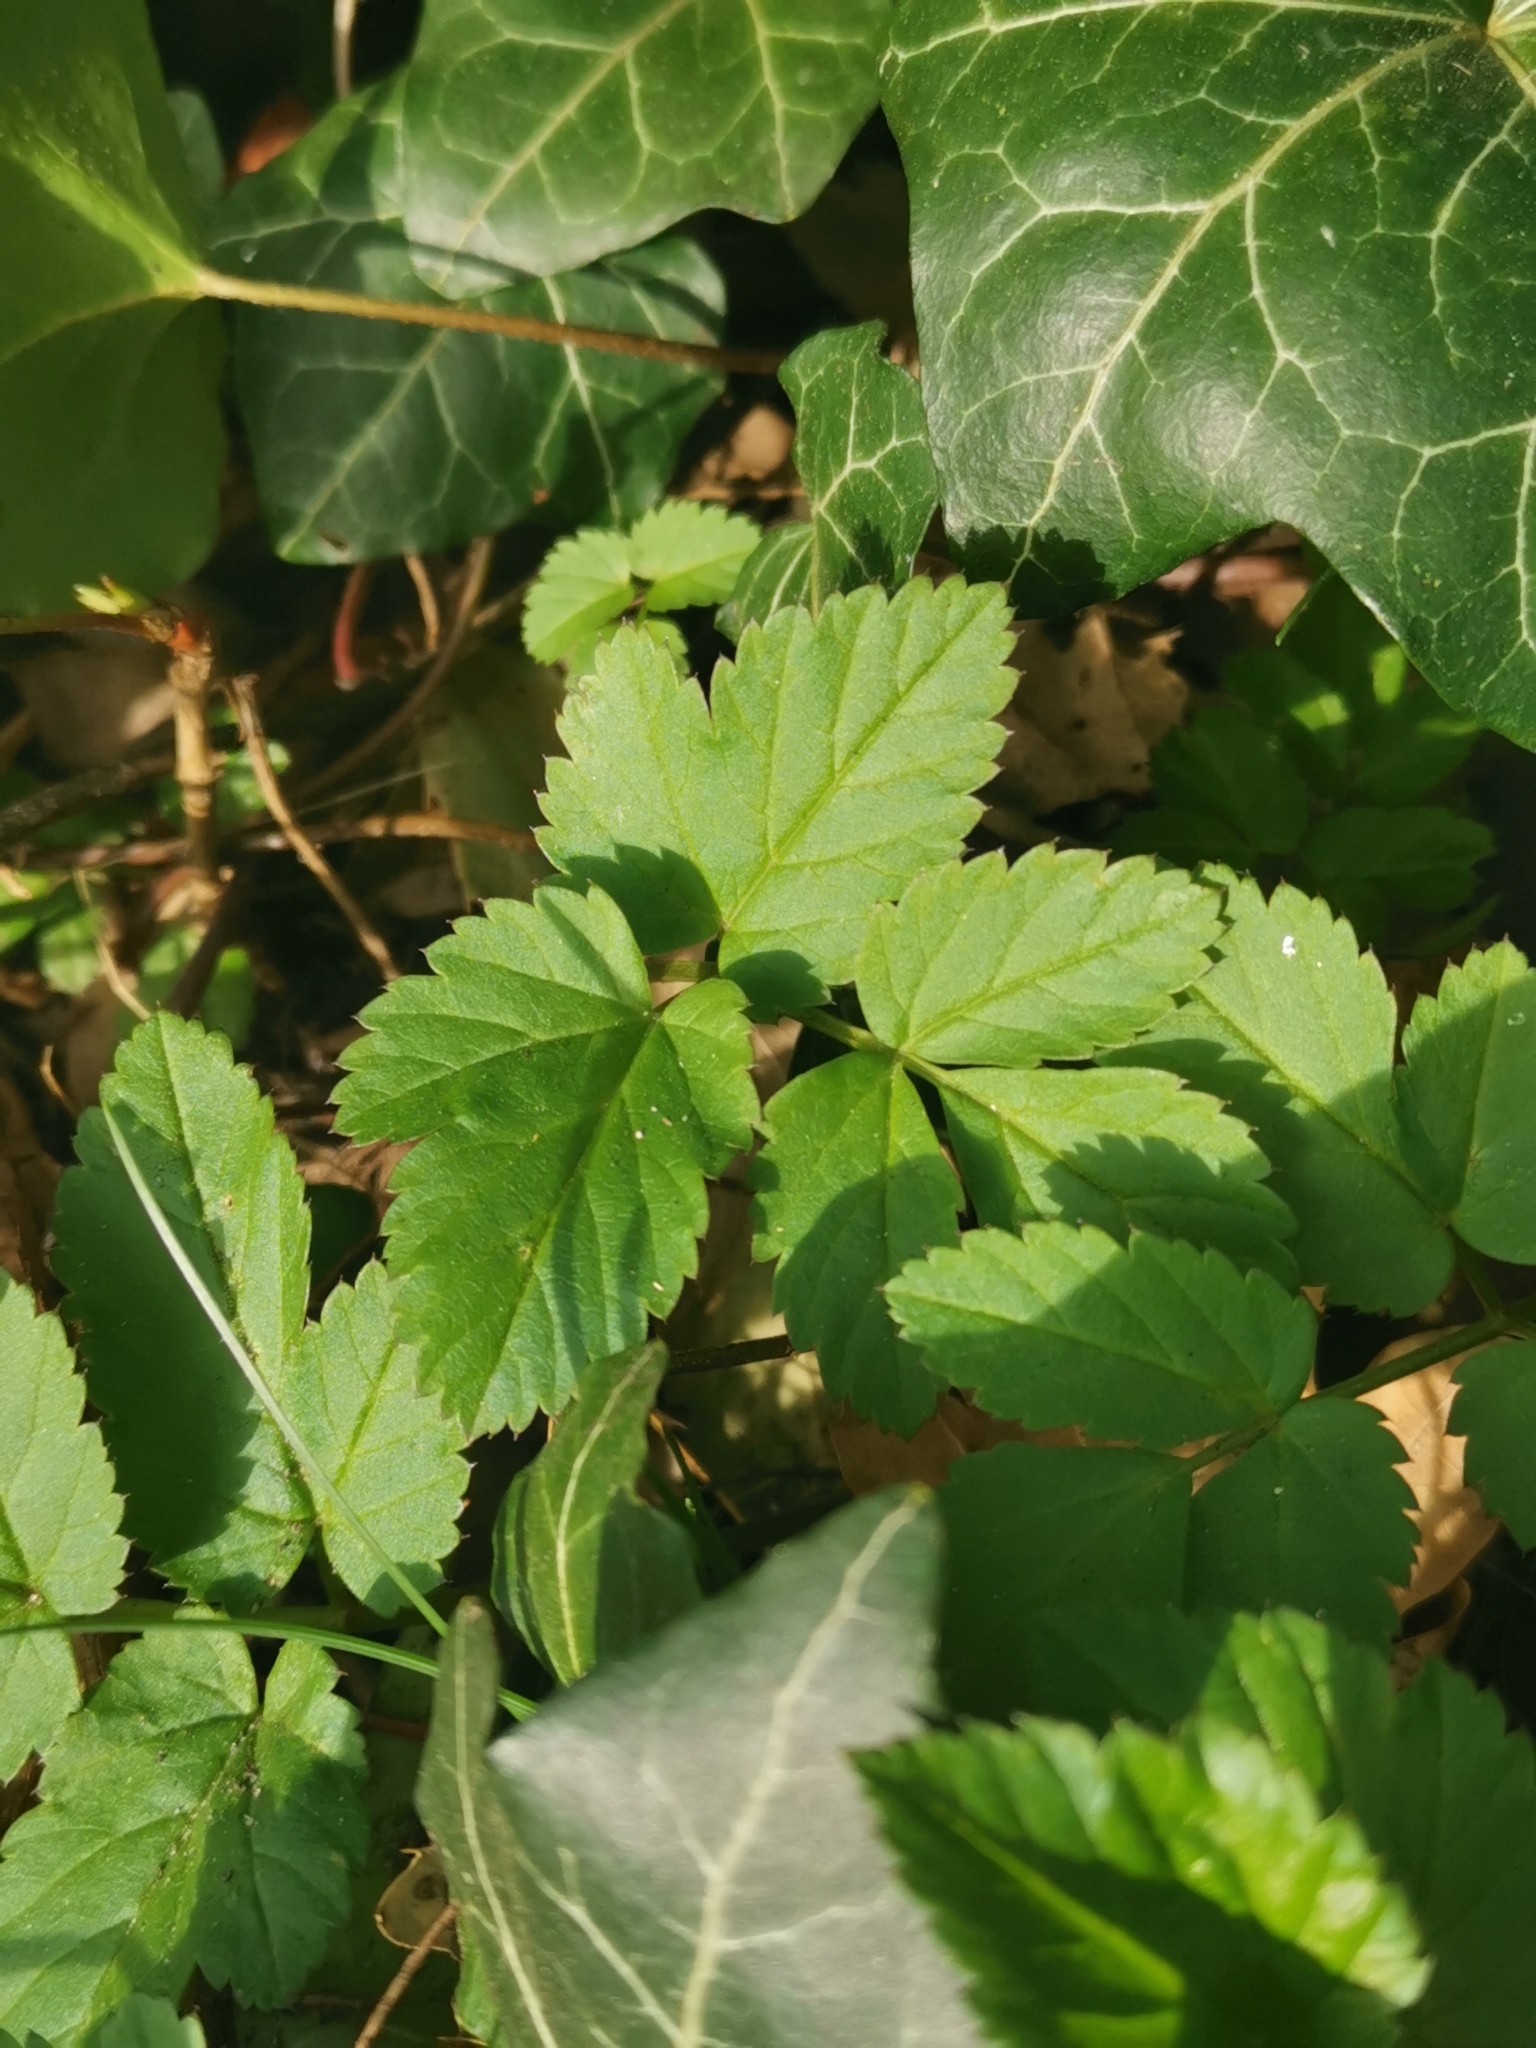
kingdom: Plantae
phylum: Tracheophyta
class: Magnoliopsida
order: Apiales
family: Apiaceae
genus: Aegopodium
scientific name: Aegopodium podagraria
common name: Ground-elder
